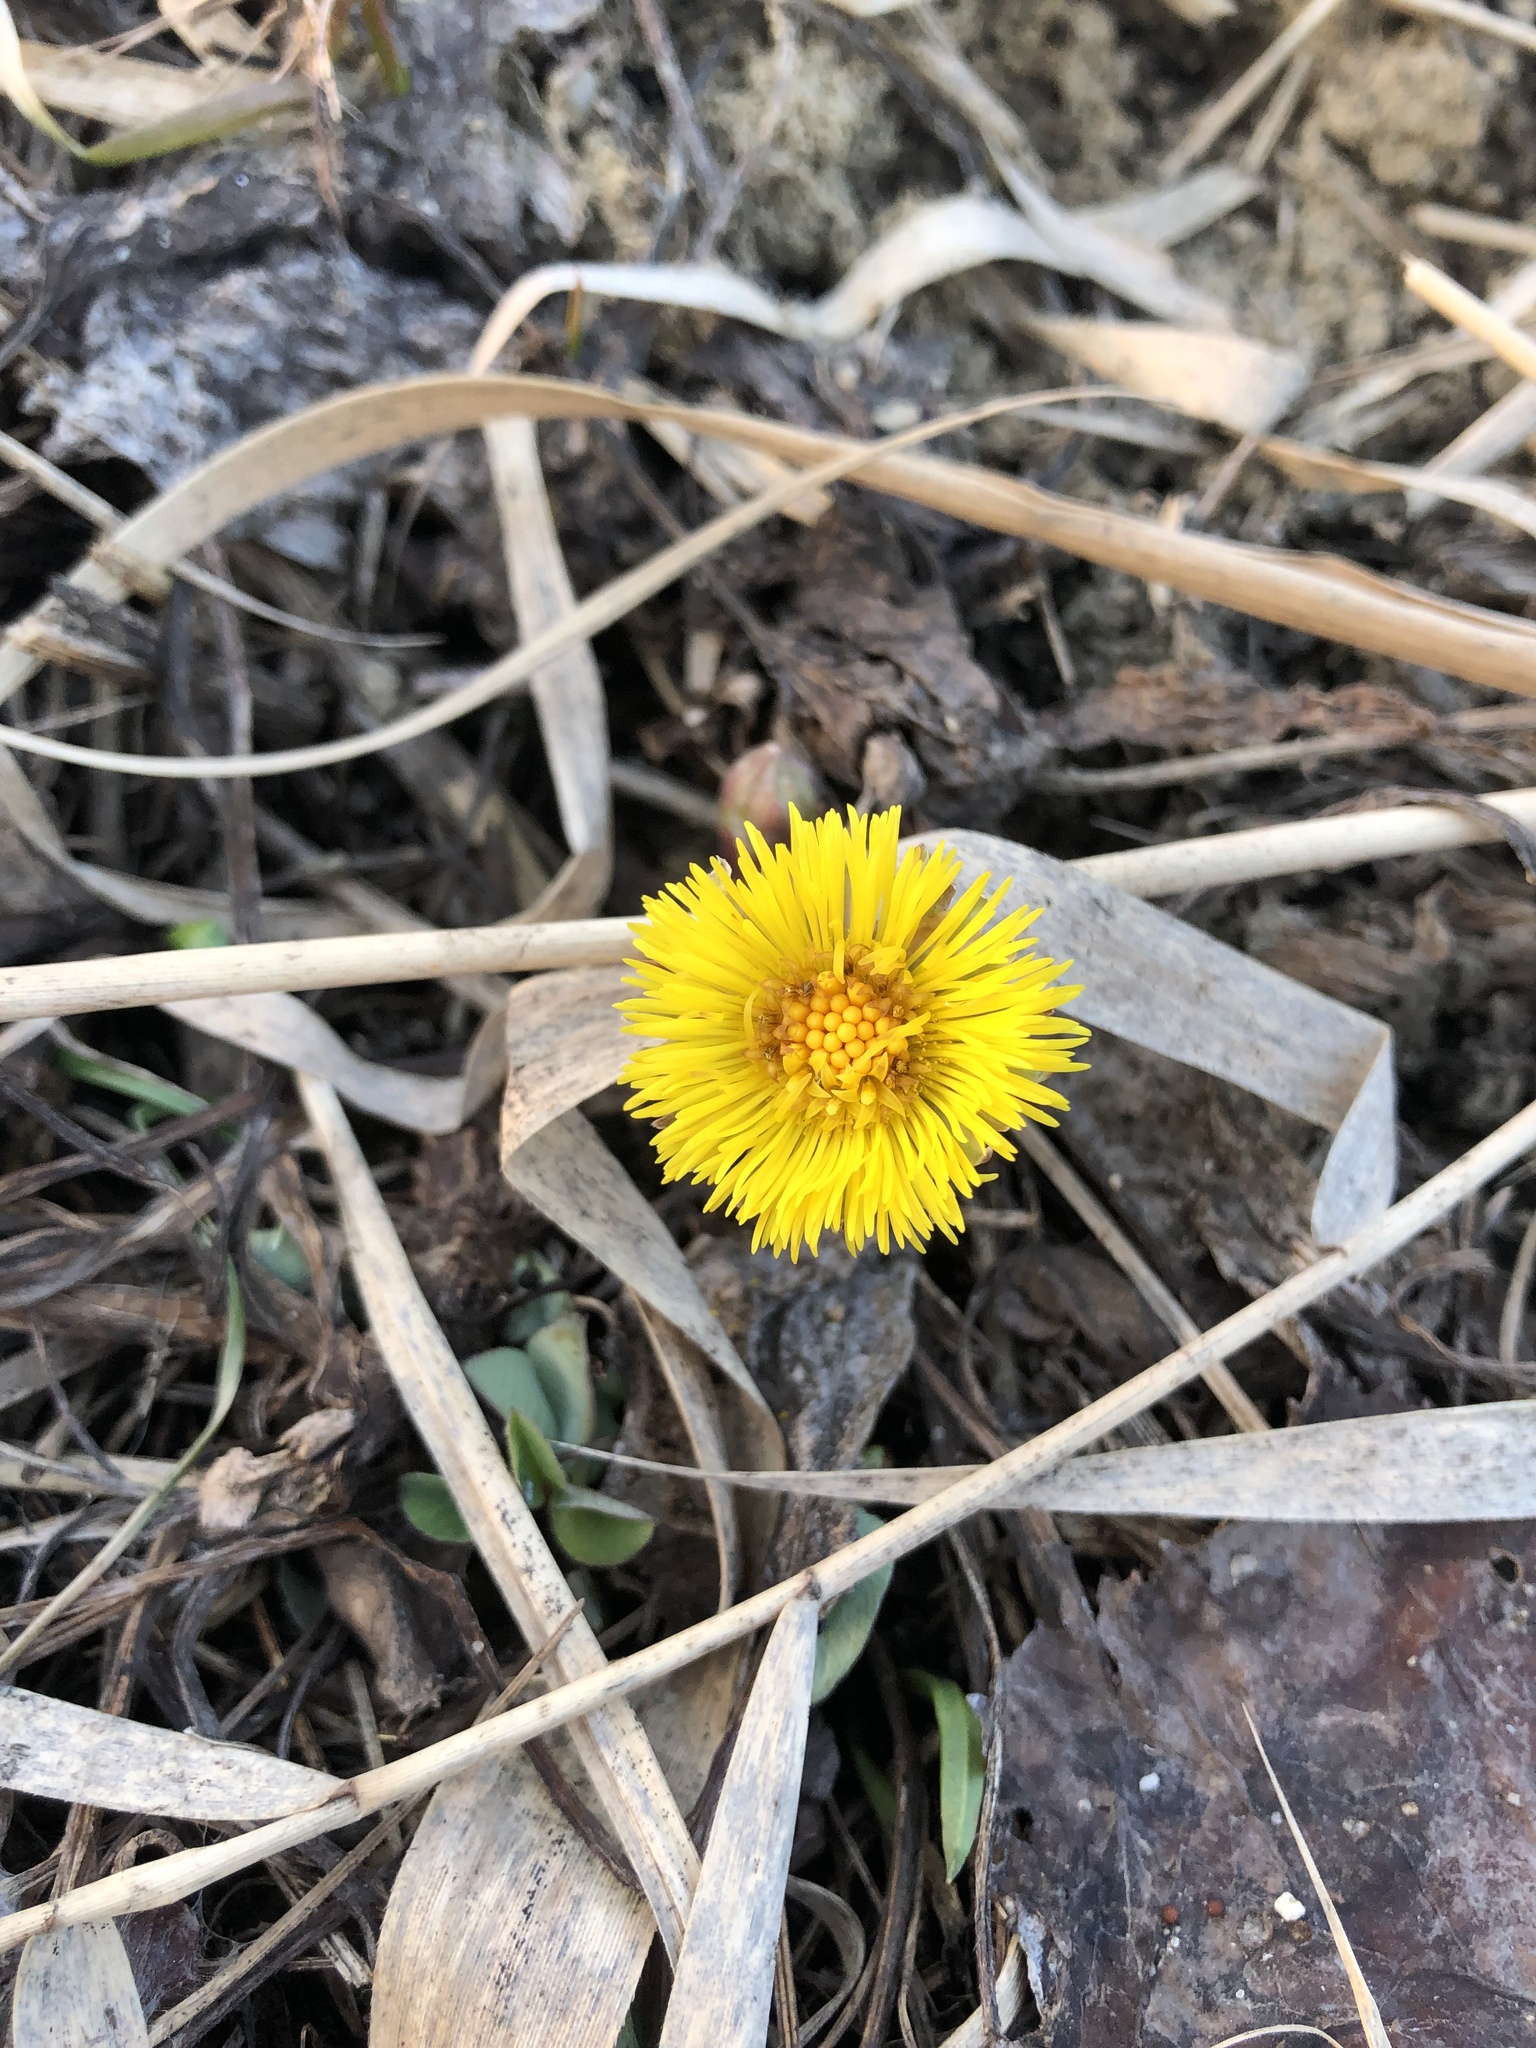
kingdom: Plantae
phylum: Tracheophyta
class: Magnoliopsida
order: Asterales
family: Asteraceae
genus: Tussilago
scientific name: Tussilago farfara
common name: Coltsfoot
